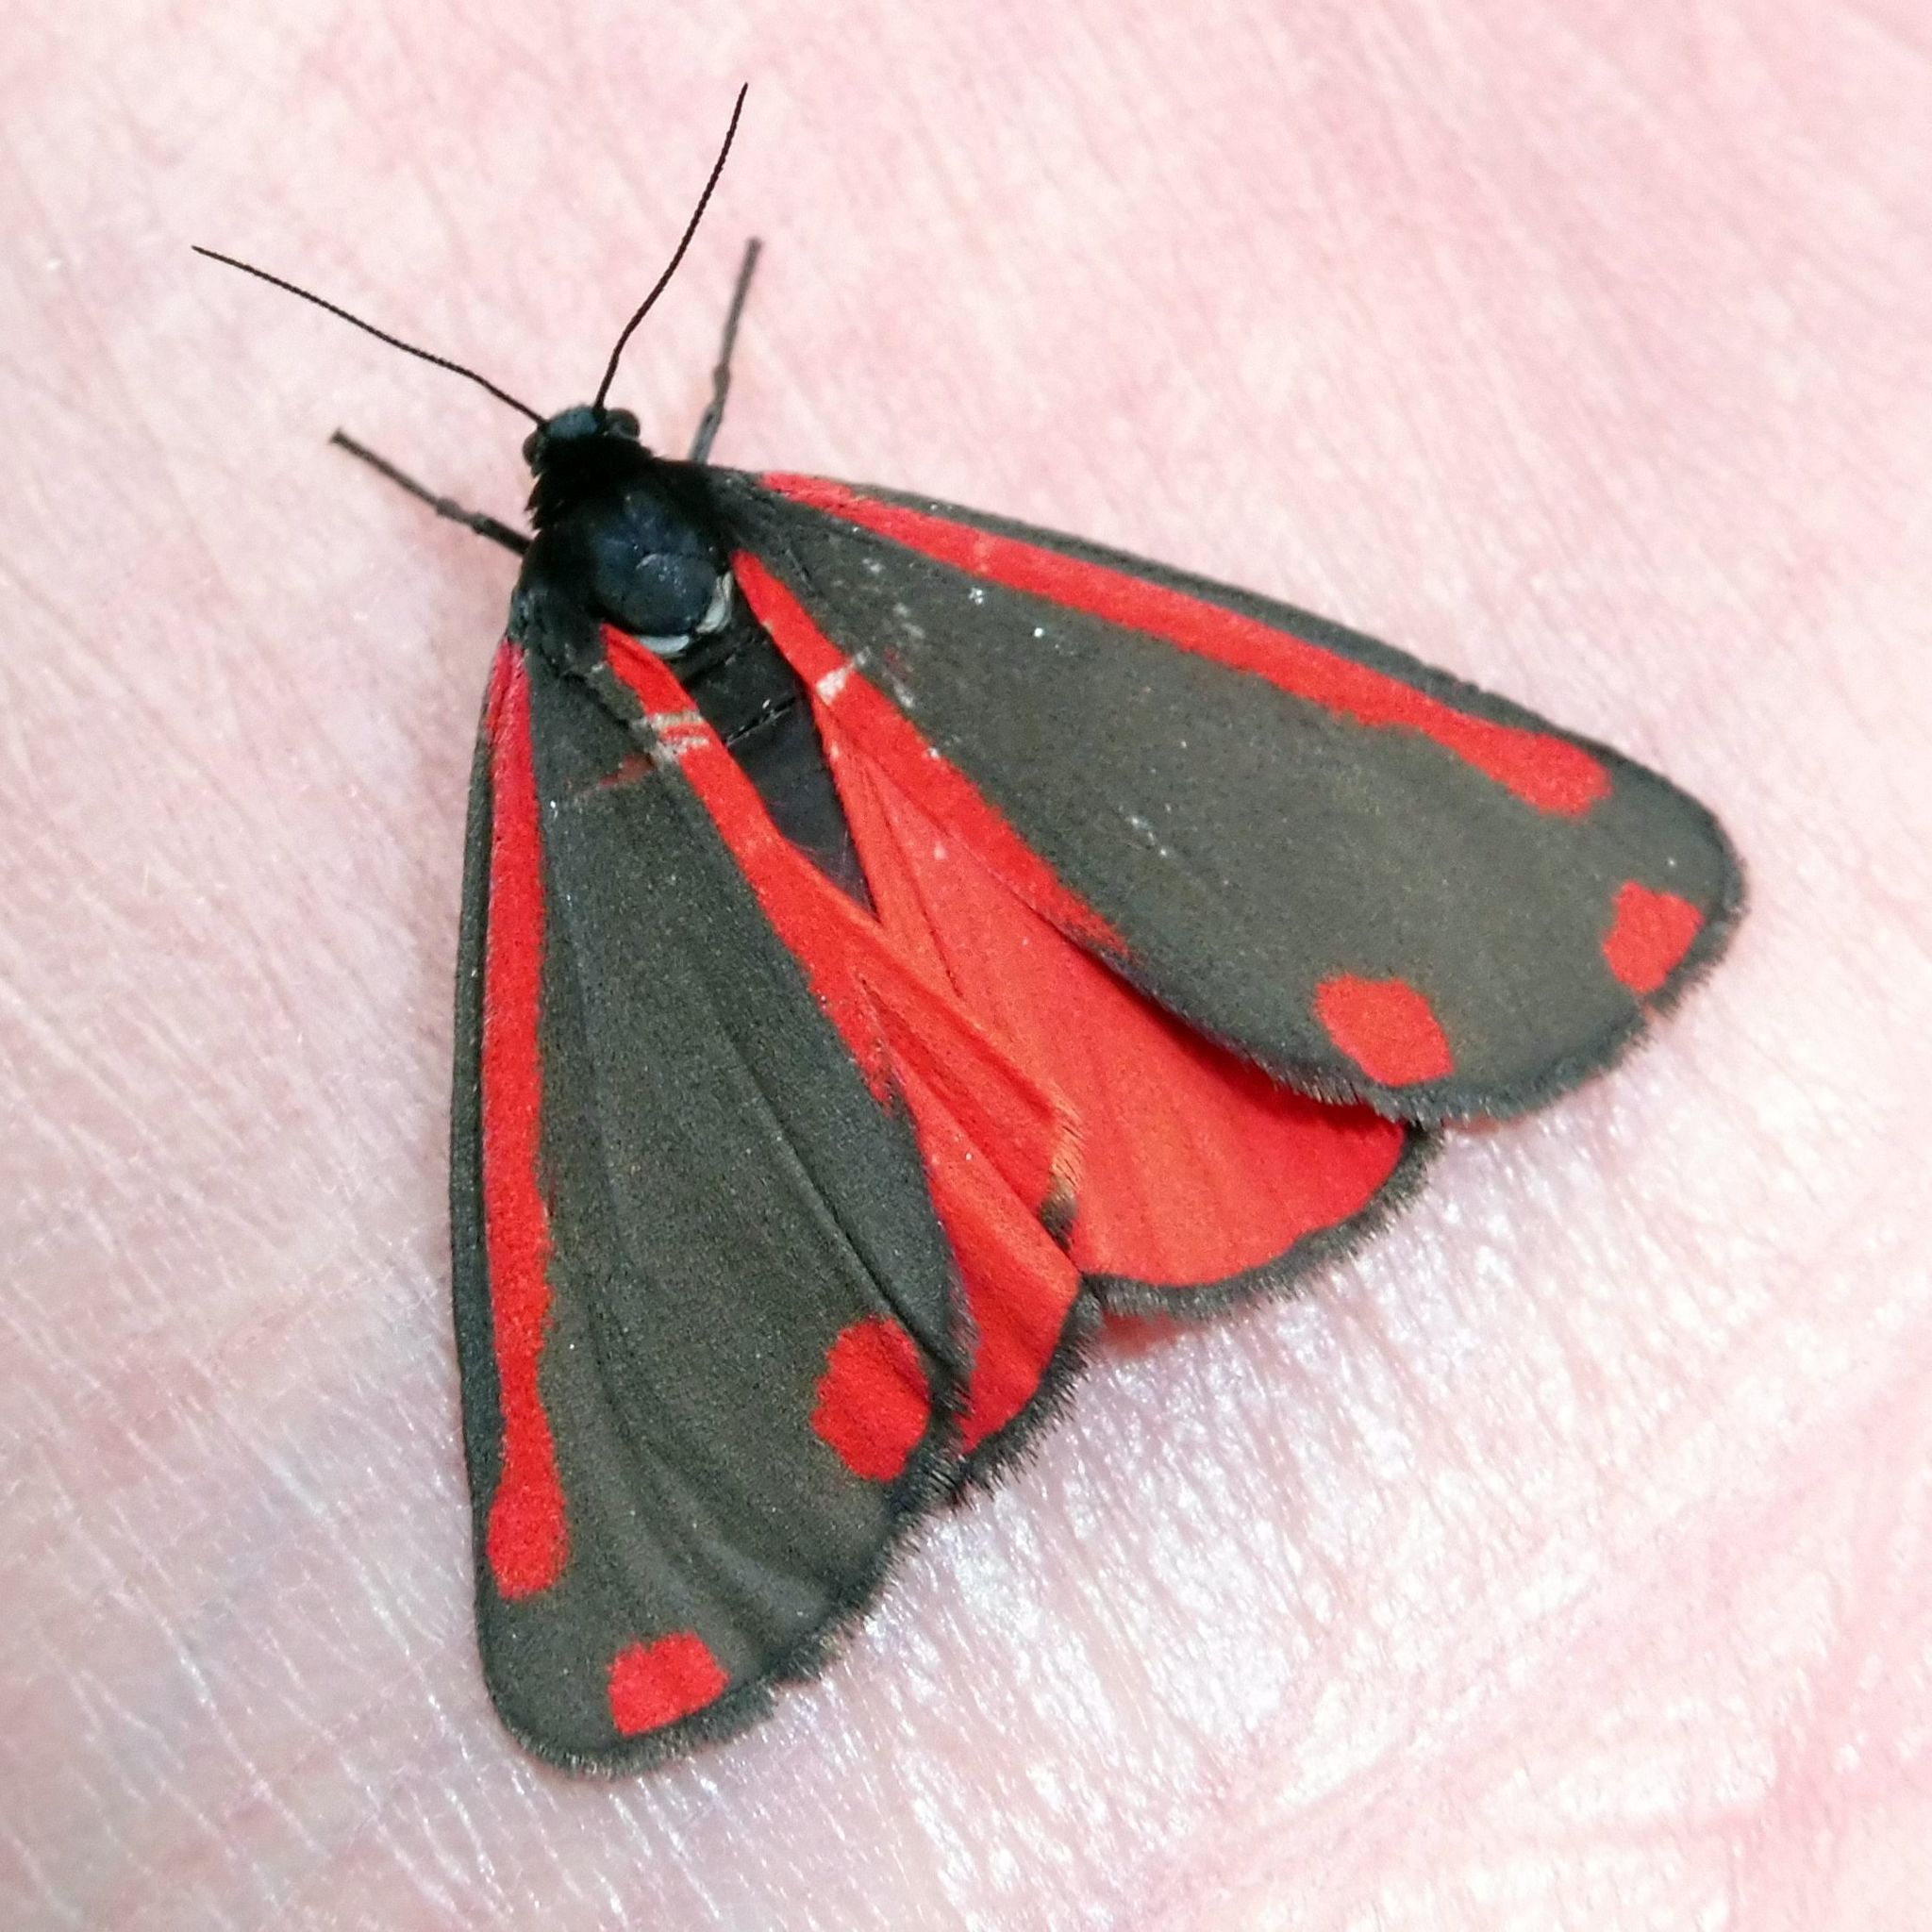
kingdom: Animalia
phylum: Arthropoda
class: Insecta
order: Lepidoptera
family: Erebidae
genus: Tyria
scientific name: Tyria jacobaeae
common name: Cinnabar
